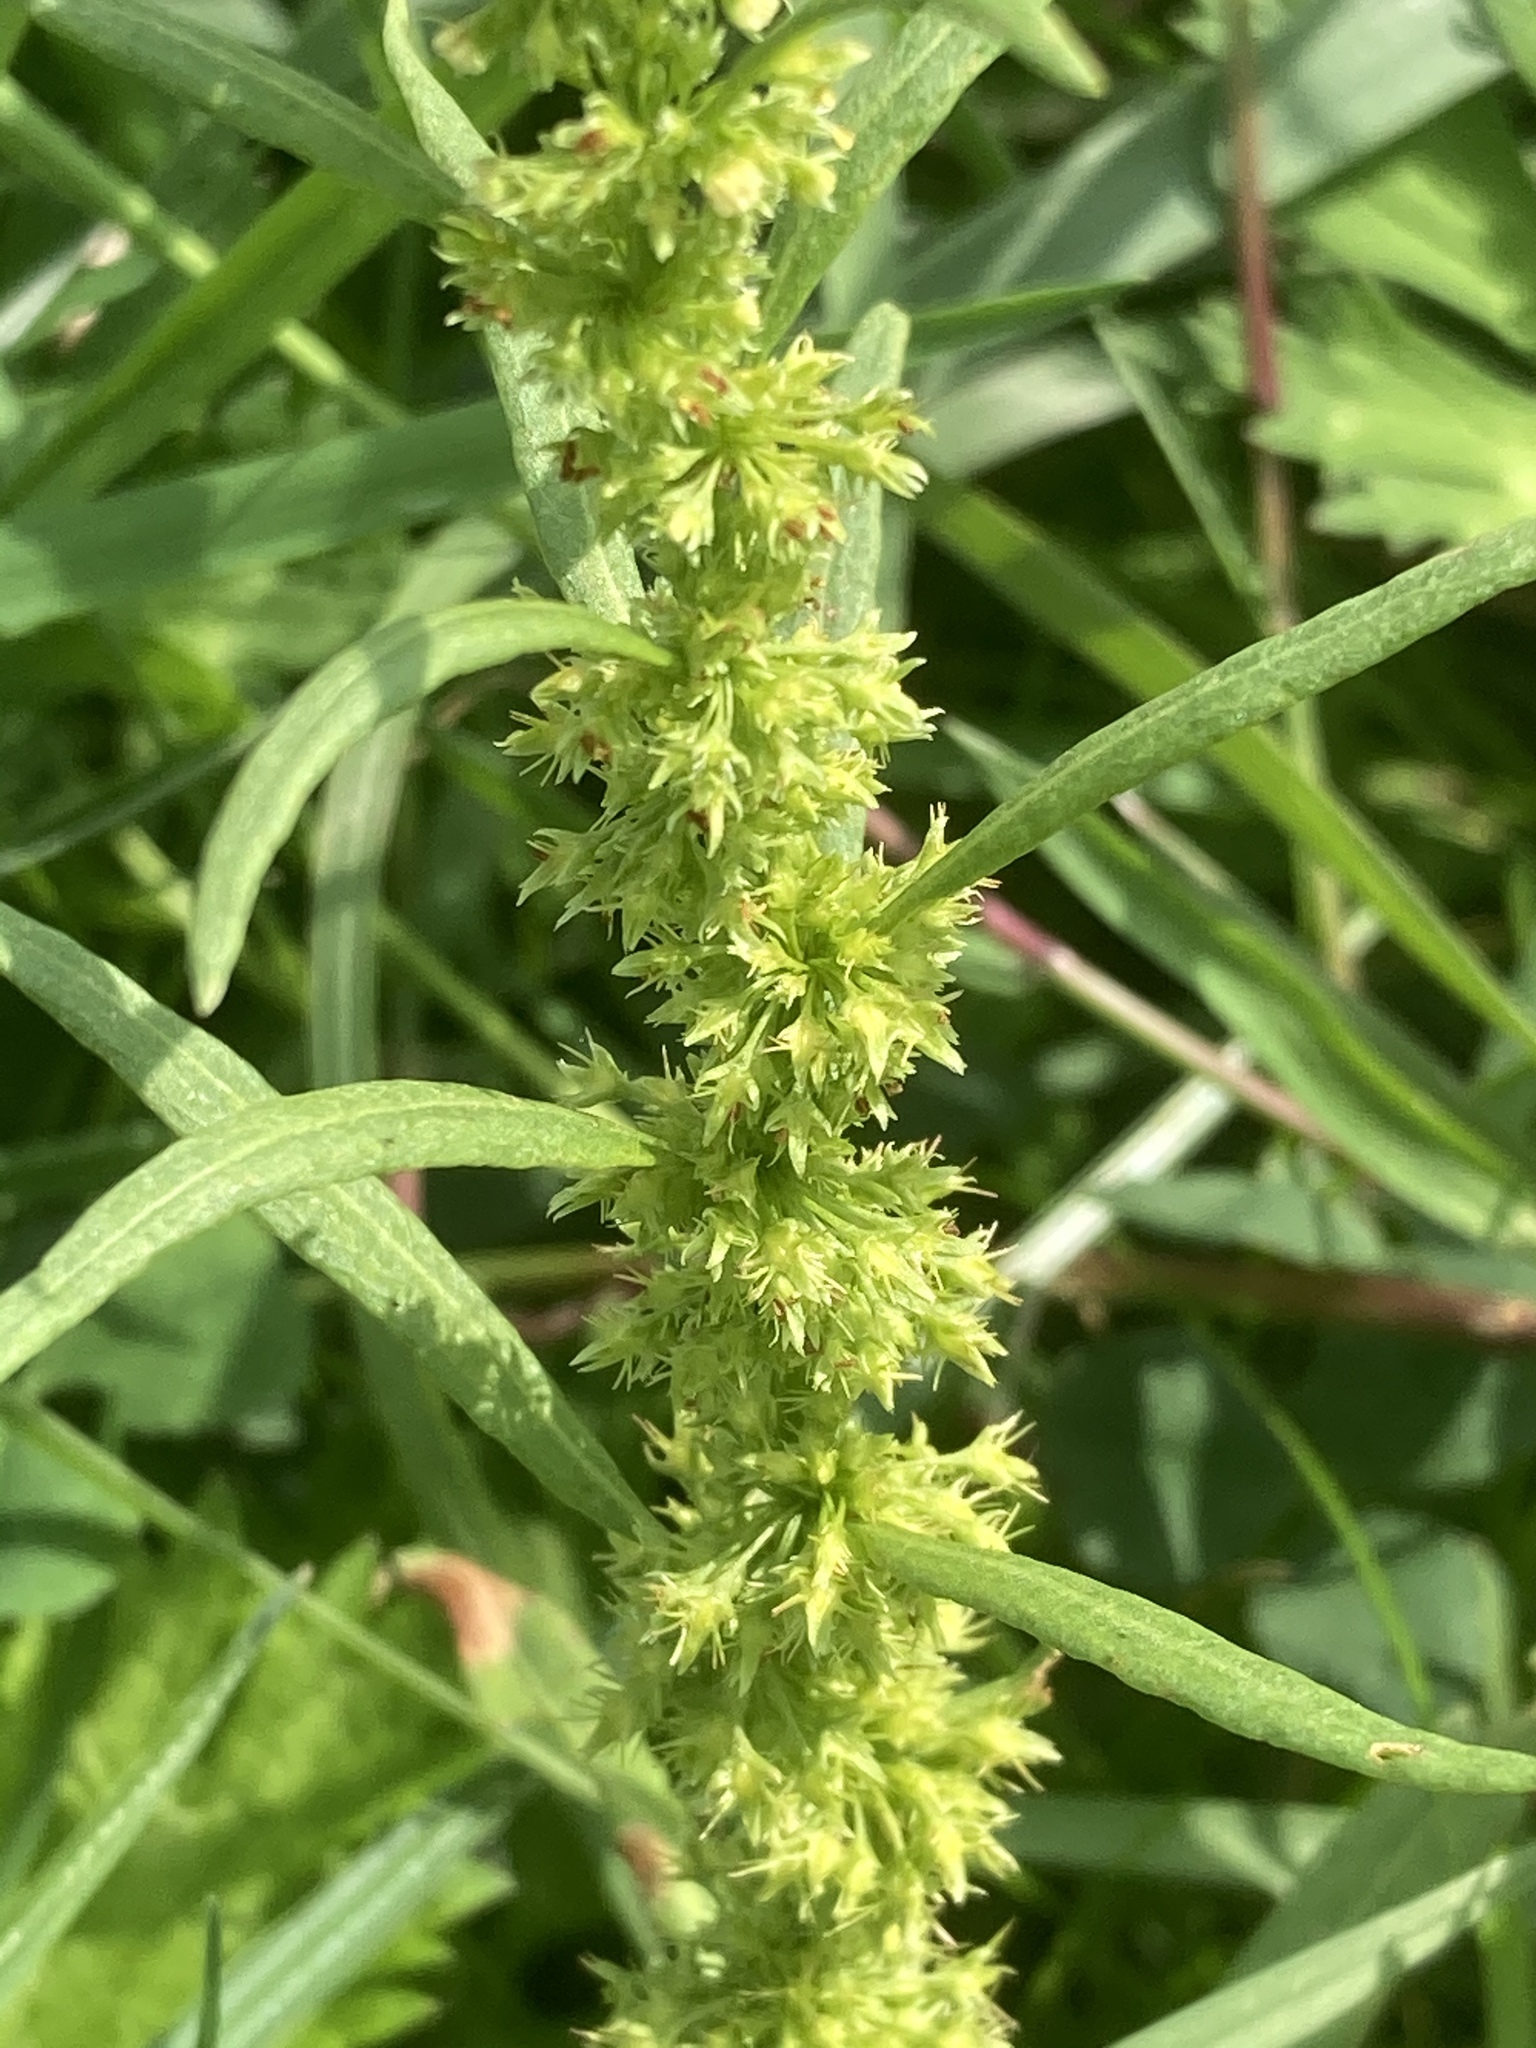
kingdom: Plantae
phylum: Tracheophyta
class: Magnoliopsida
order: Caryophyllales
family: Polygonaceae
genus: Rumex
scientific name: Rumex maritimus
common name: Golden dock
